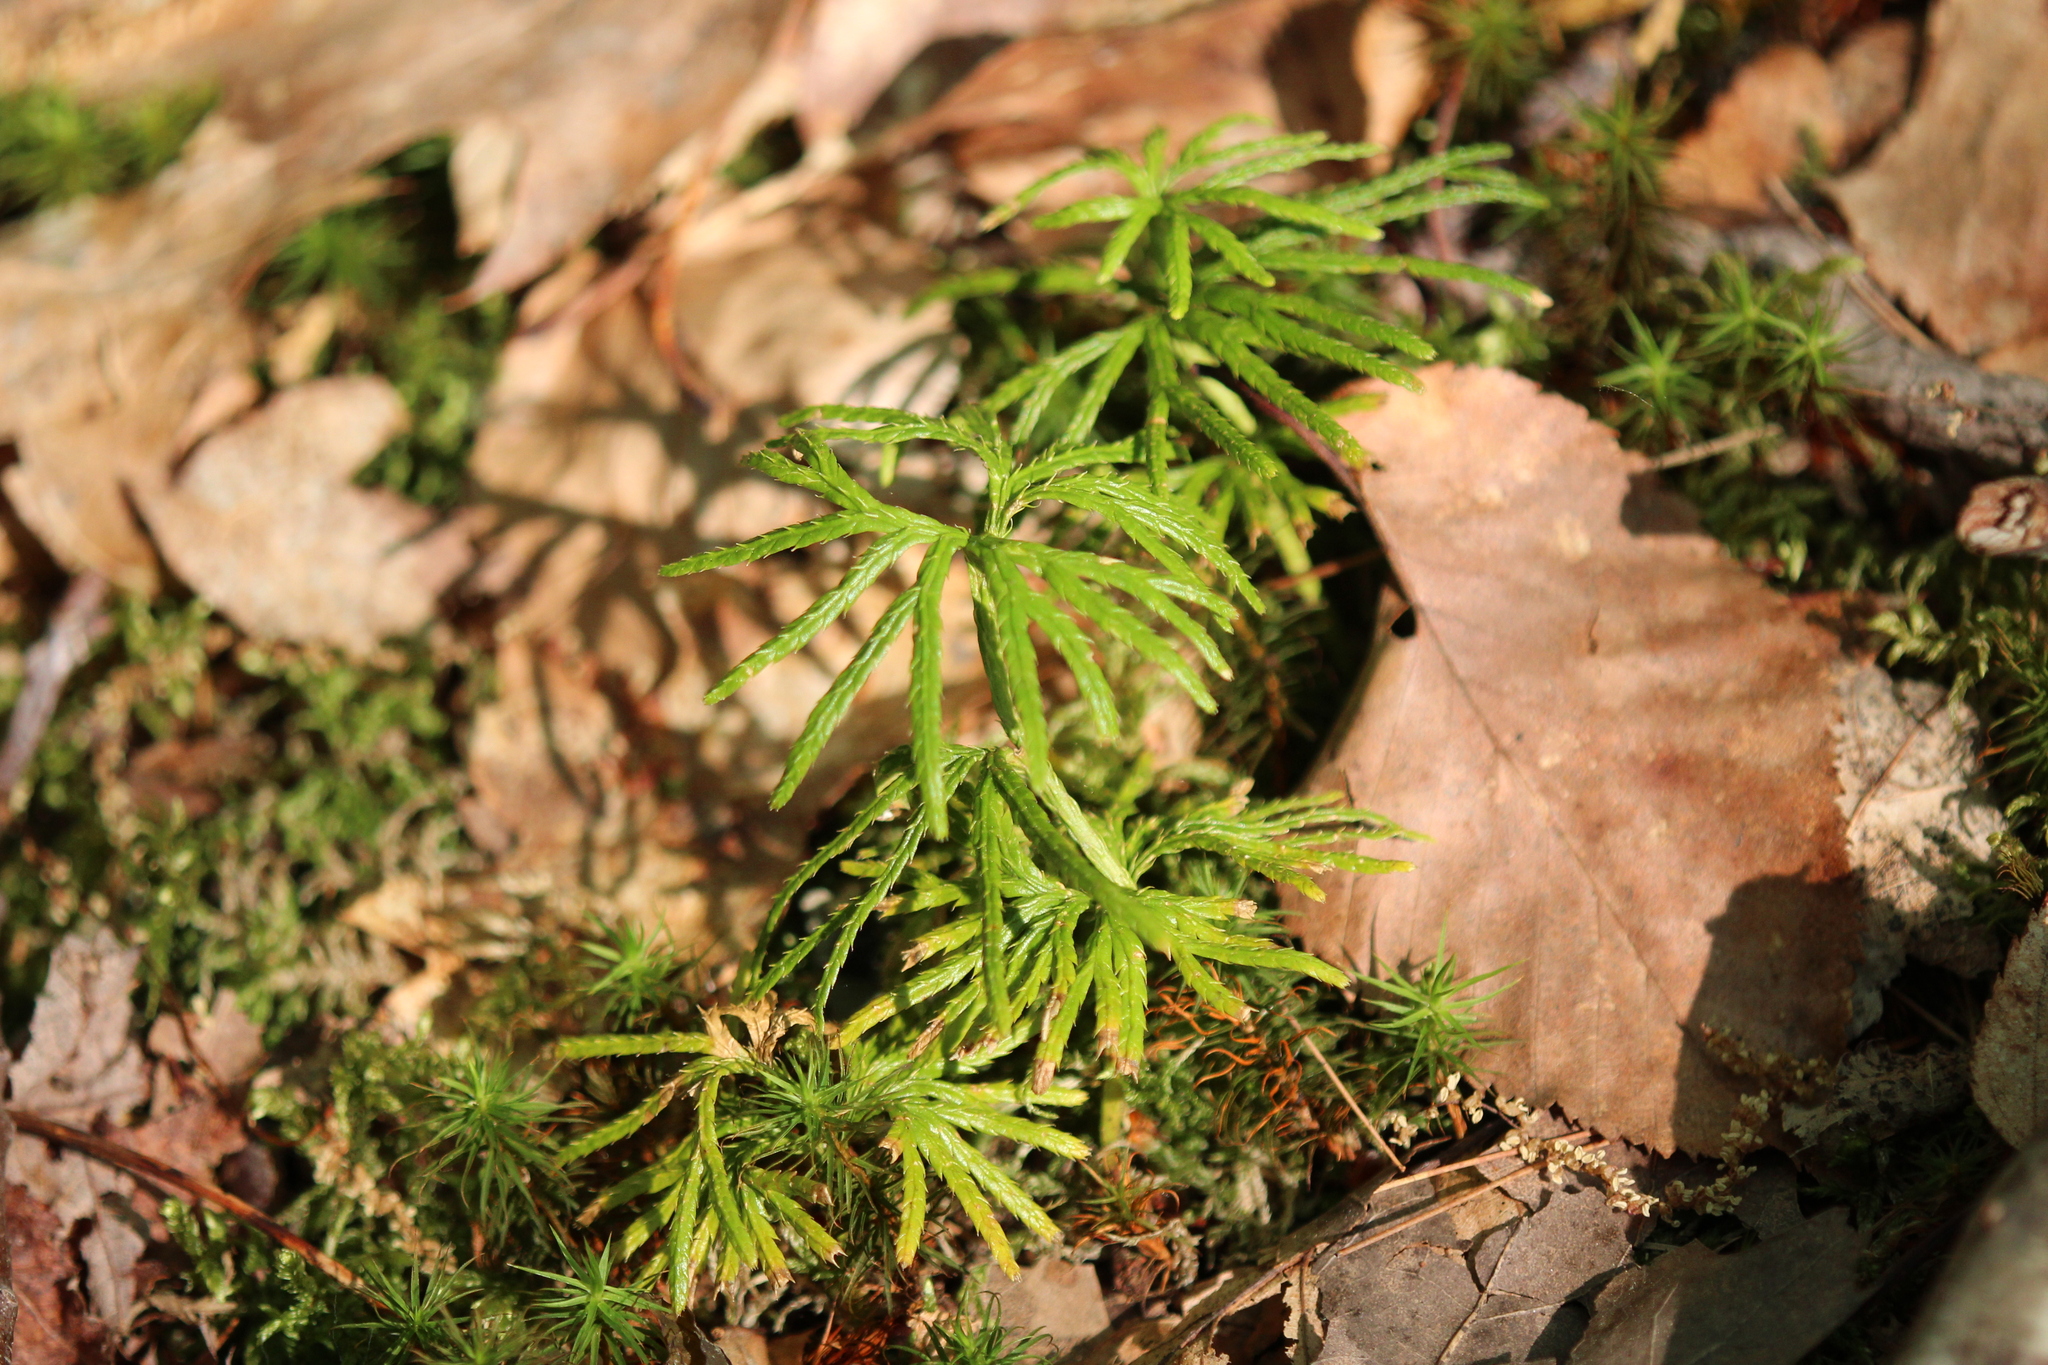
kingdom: Plantae
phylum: Tracheophyta
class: Lycopodiopsida
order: Lycopodiales
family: Lycopodiaceae
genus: Diphasiastrum
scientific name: Diphasiastrum digitatum
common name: Southern running-pine
